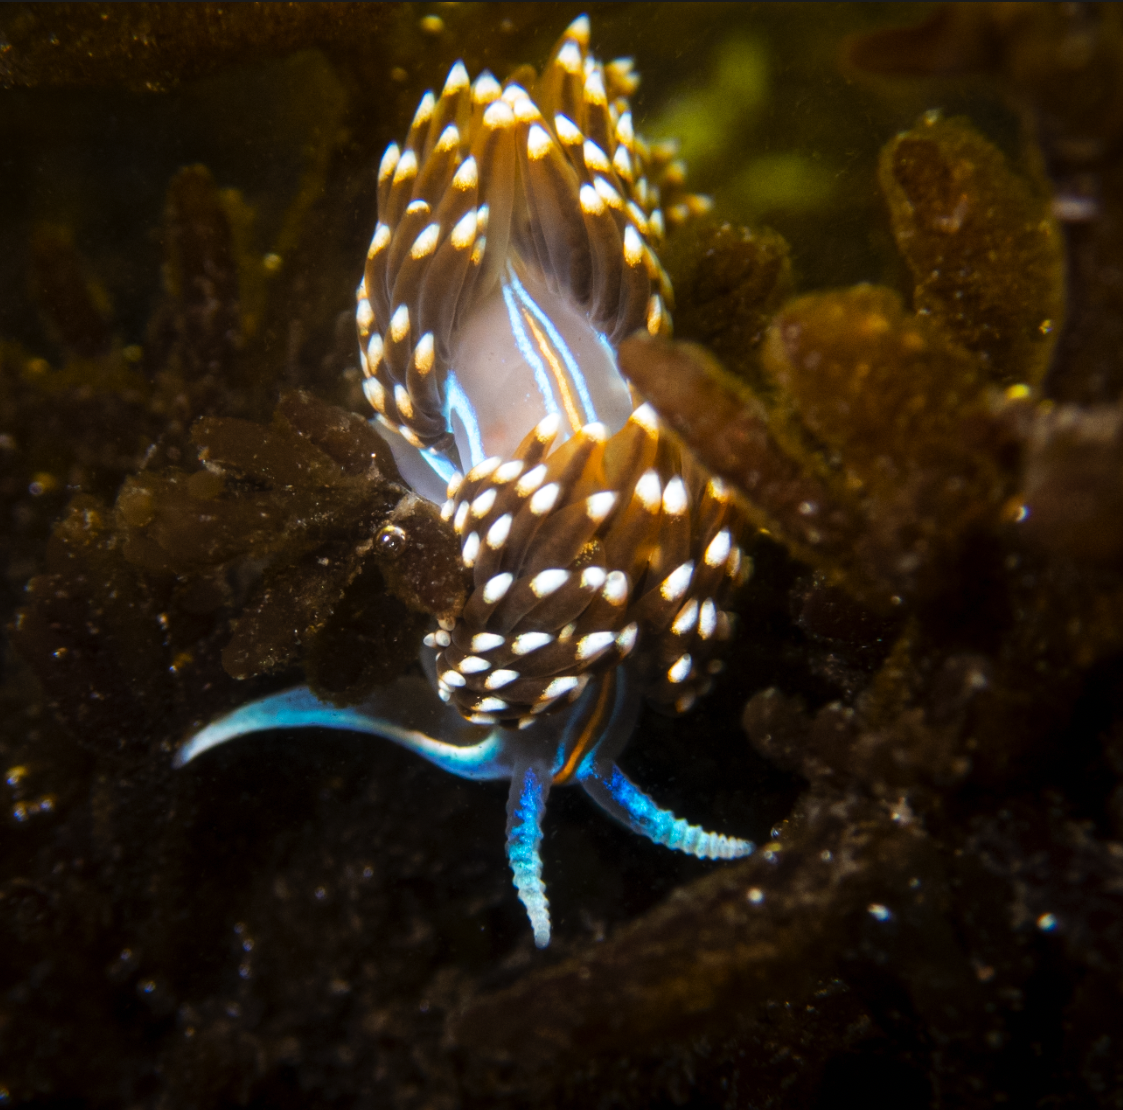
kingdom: Animalia
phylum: Mollusca
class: Gastropoda
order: Nudibranchia
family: Myrrhinidae
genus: Hermissenda
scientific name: Hermissenda opalescens
